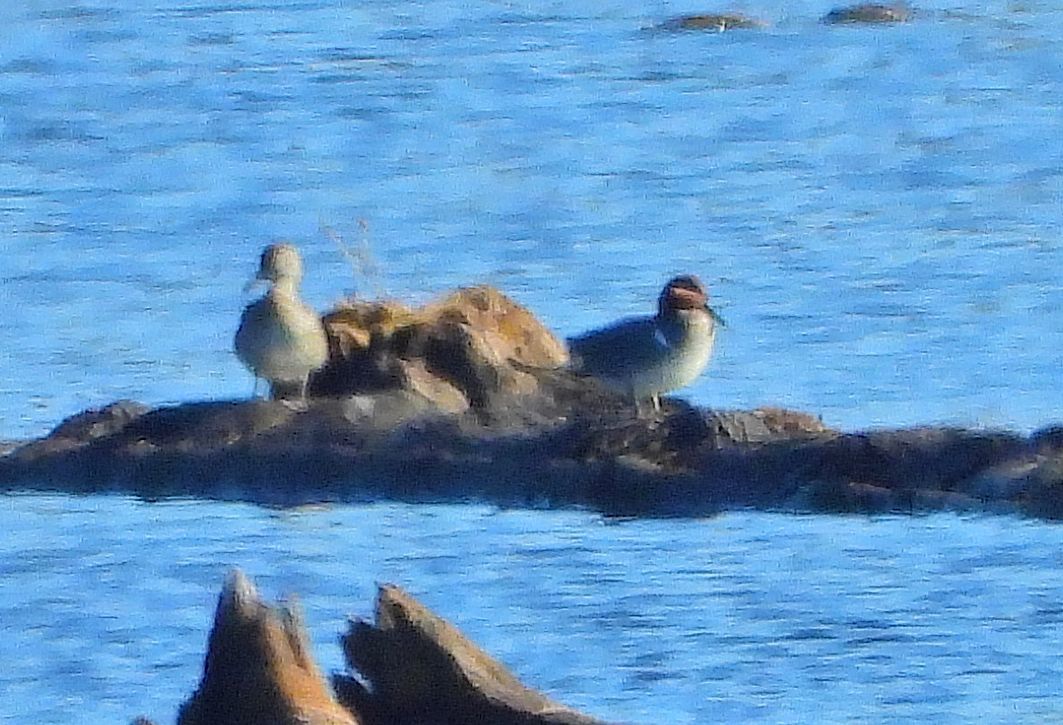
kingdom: Animalia
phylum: Chordata
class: Aves
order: Anseriformes
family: Anatidae
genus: Anas
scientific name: Anas crecca
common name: Eurasian teal
